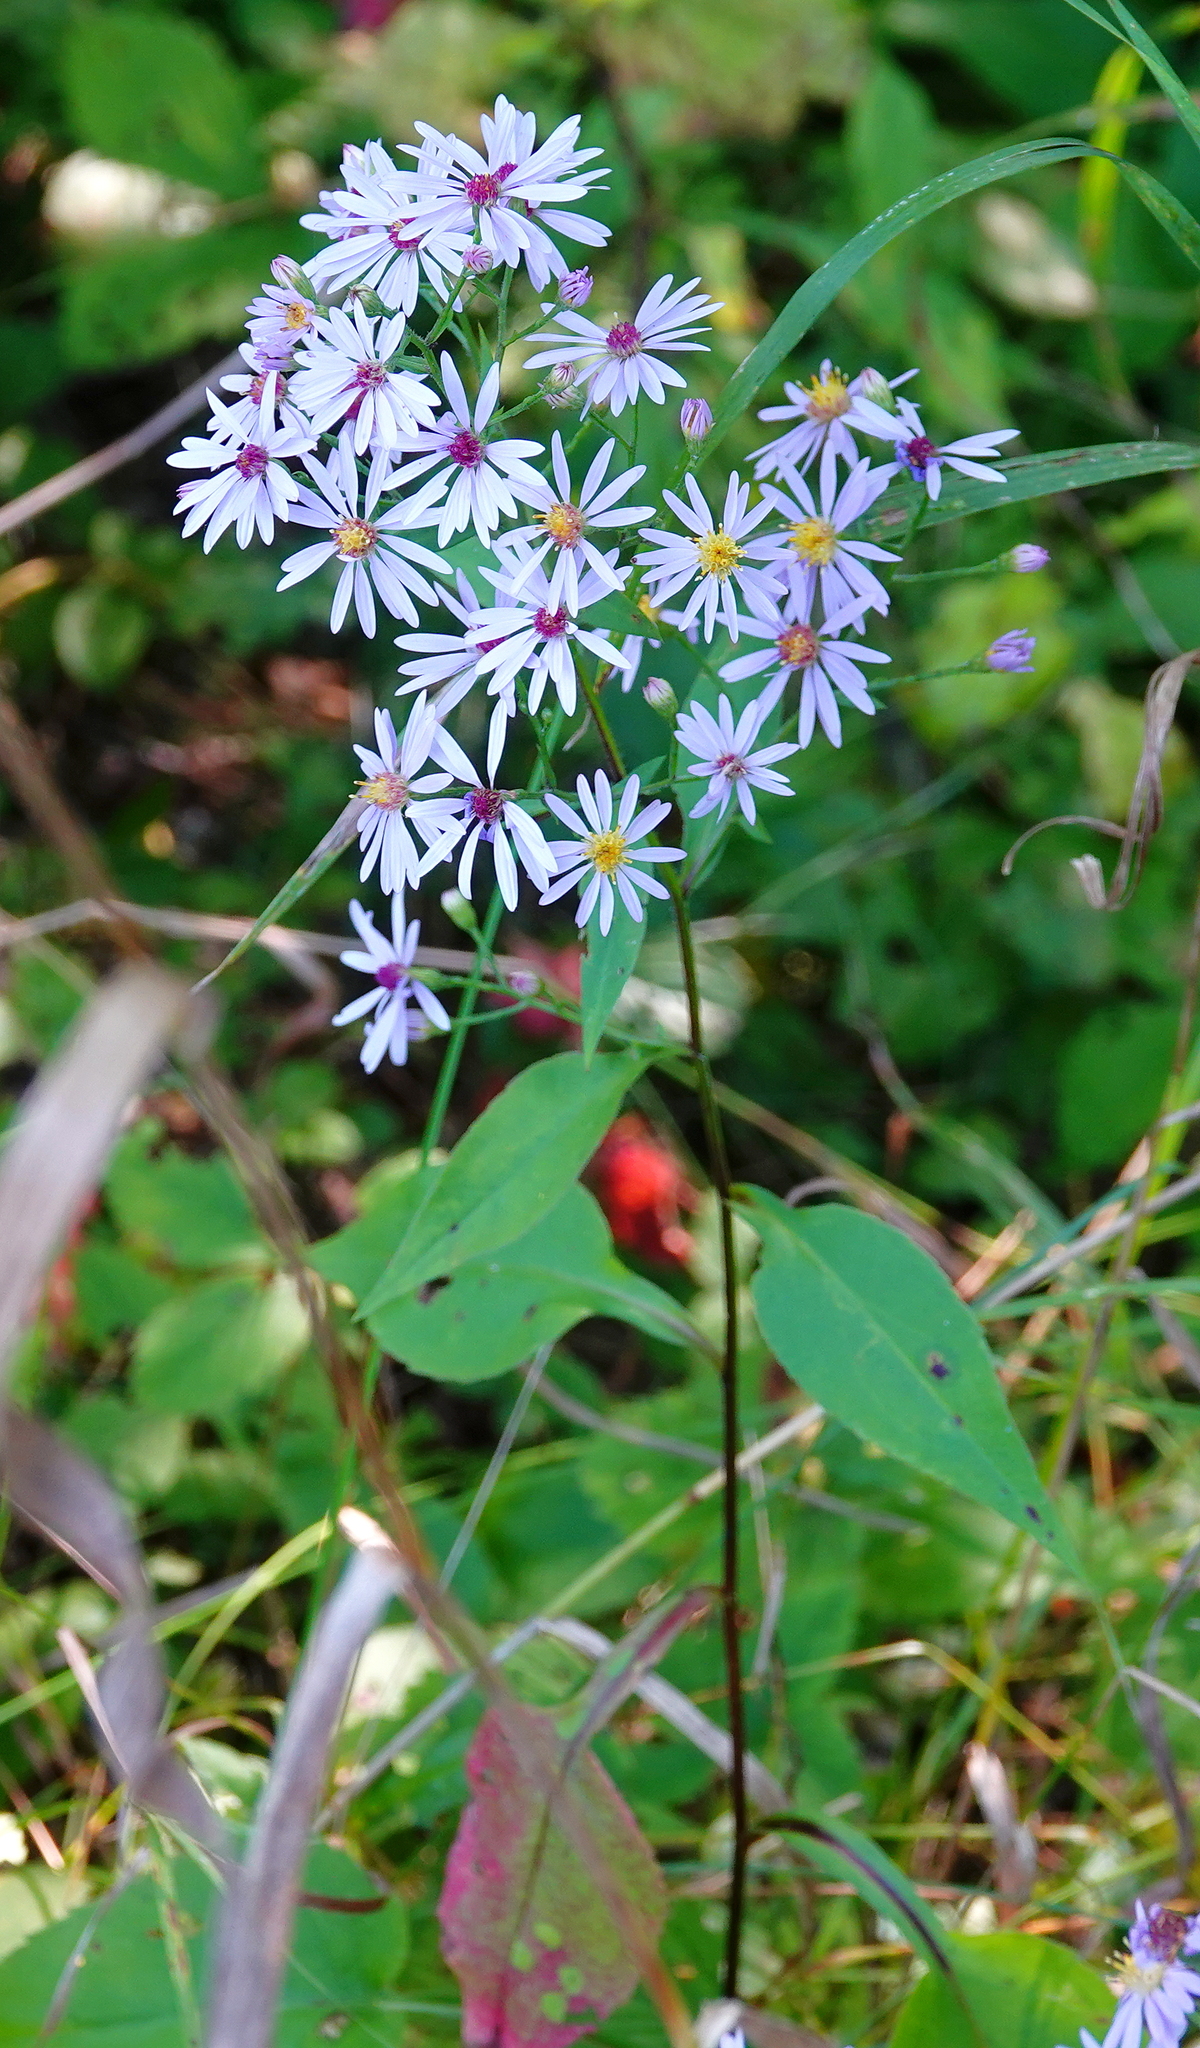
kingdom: Plantae
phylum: Tracheophyta
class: Magnoliopsida
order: Asterales
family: Asteraceae
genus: Symphyotrichum
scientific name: Symphyotrichum ciliolatum
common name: Fringed blue aster
